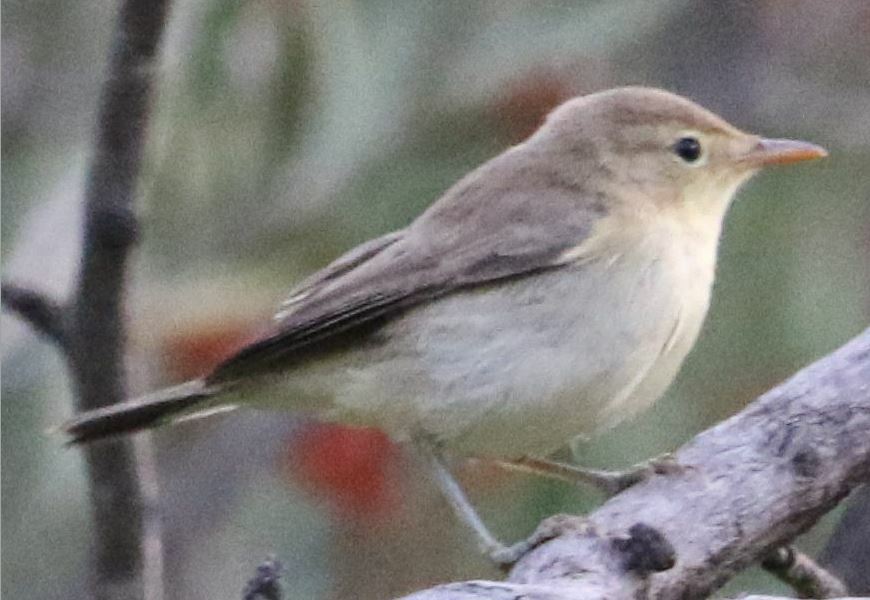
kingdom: Animalia
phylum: Chordata
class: Aves
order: Passeriformes
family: Acrocephalidae
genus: Hippolais
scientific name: Hippolais polyglotta
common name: Melodious warbler
